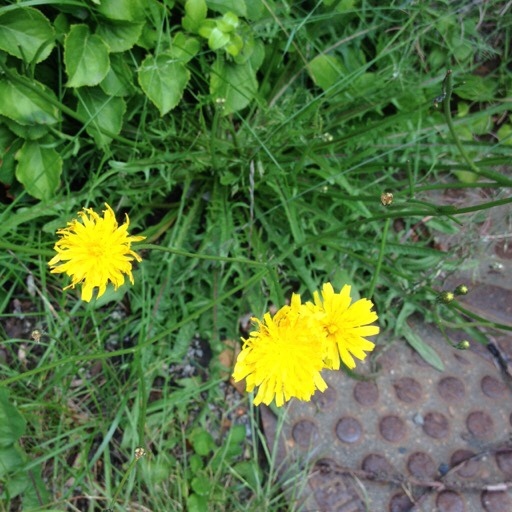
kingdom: Plantae
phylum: Tracheophyta
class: Magnoliopsida
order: Asterales
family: Asteraceae
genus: Scorzoneroides
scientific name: Scorzoneroides autumnalis
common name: Autumn hawkbit
